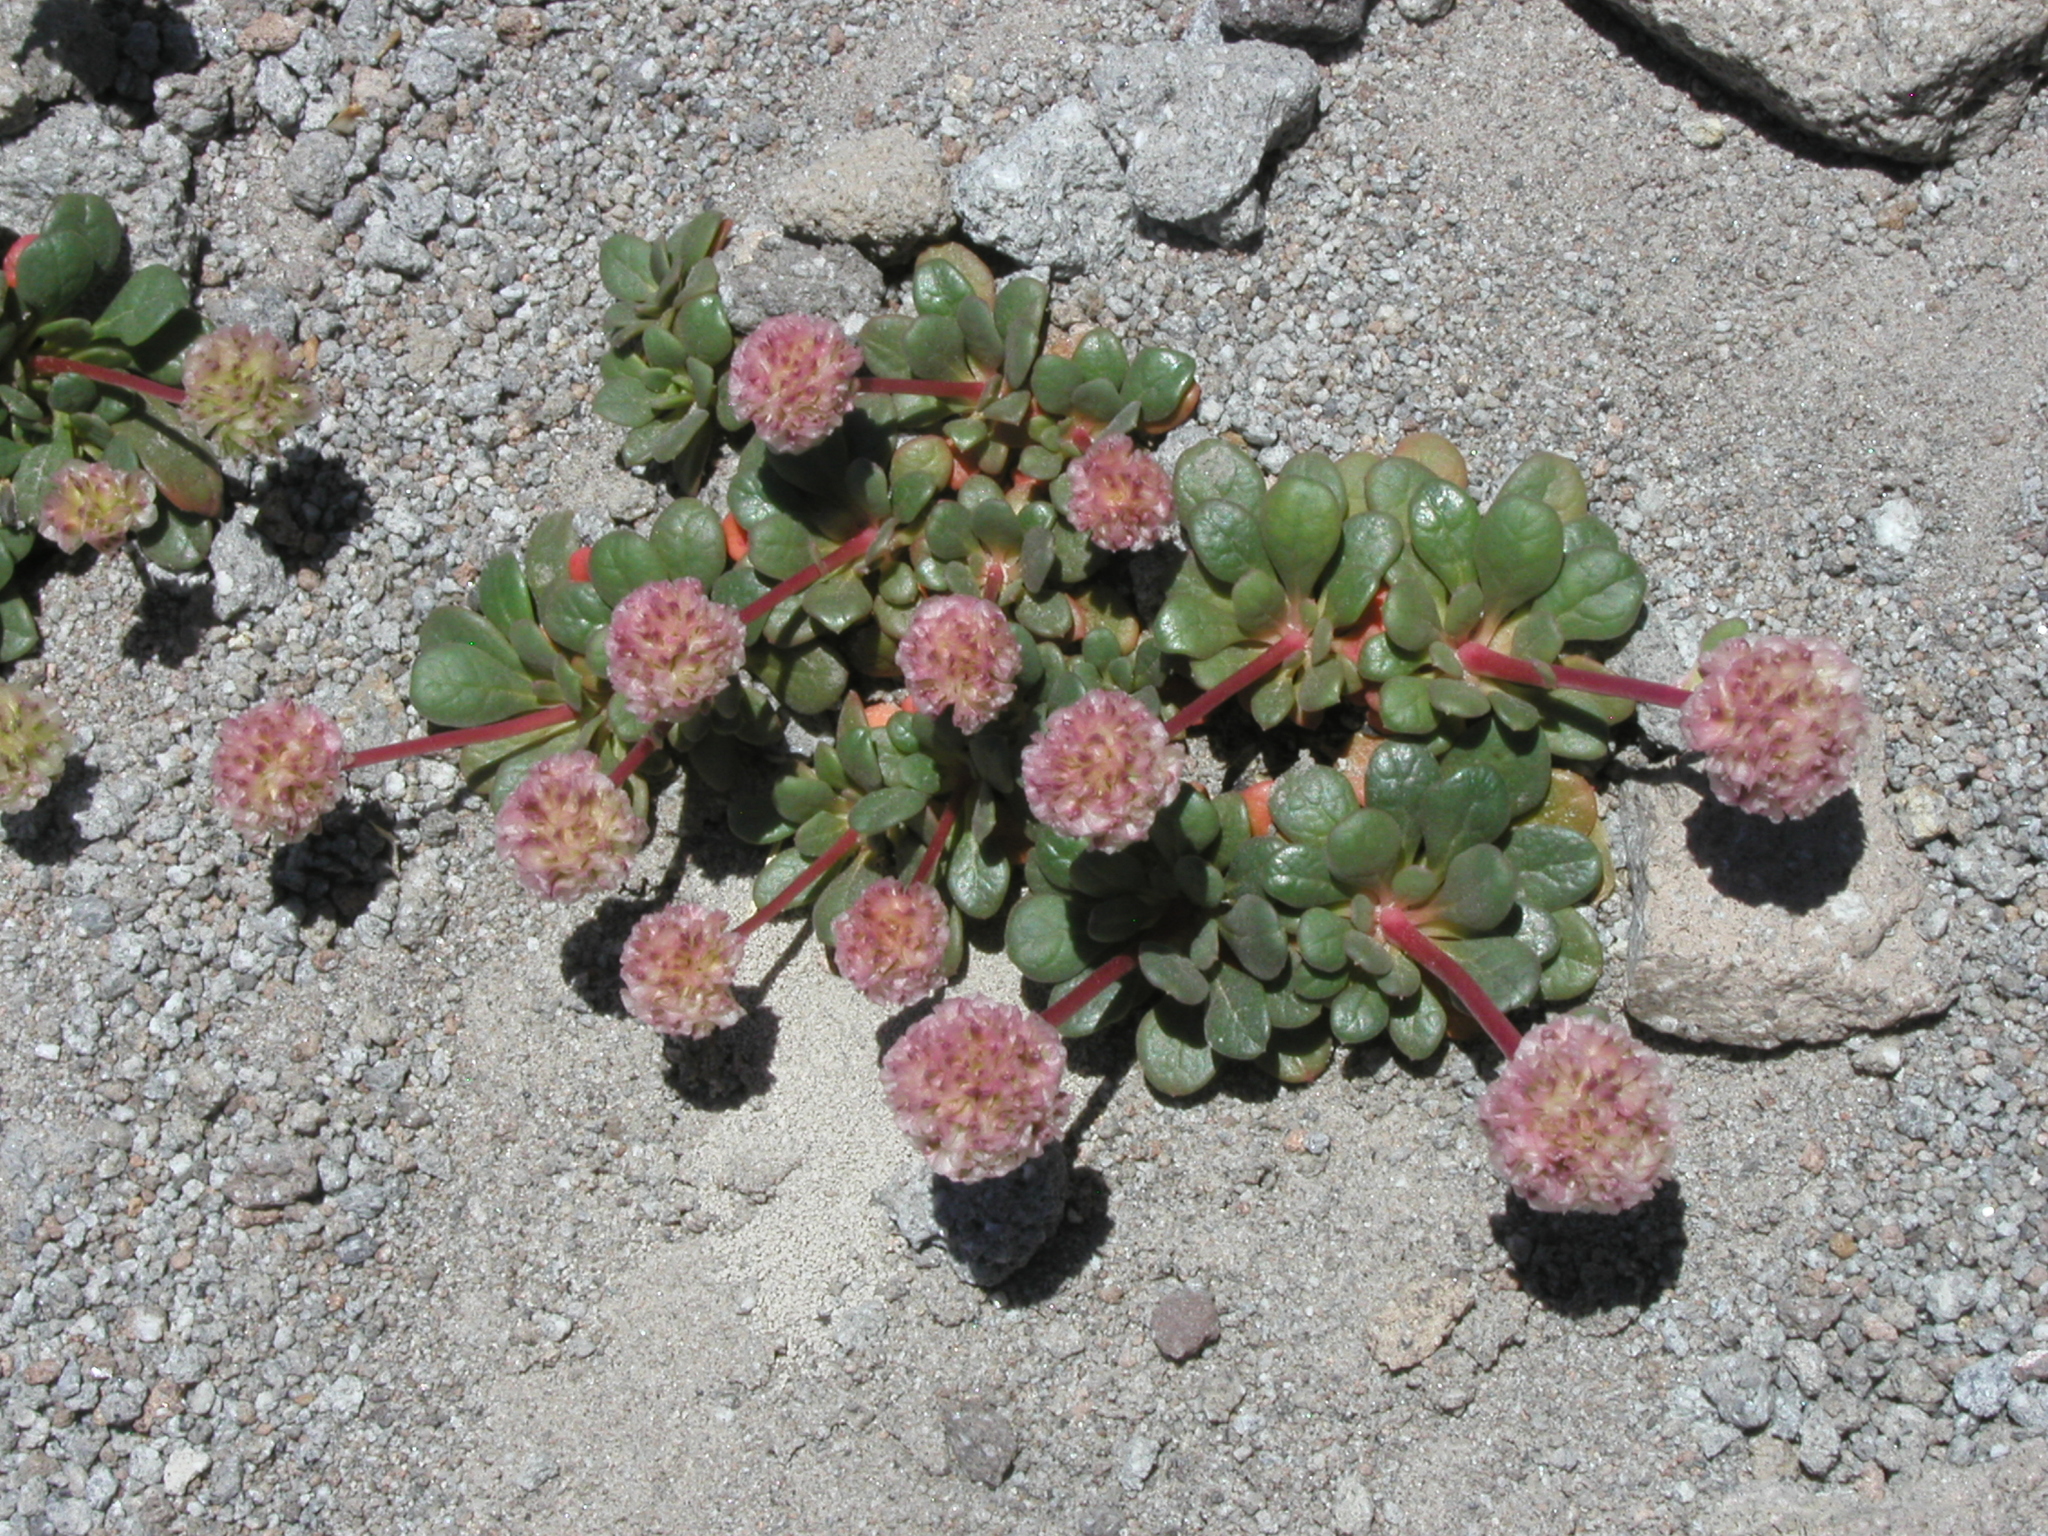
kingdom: Plantae
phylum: Tracheophyta
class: Magnoliopsida
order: Caryophyllales
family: Montiaceae
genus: Calyptridium
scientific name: Calyptridium umbellatum
